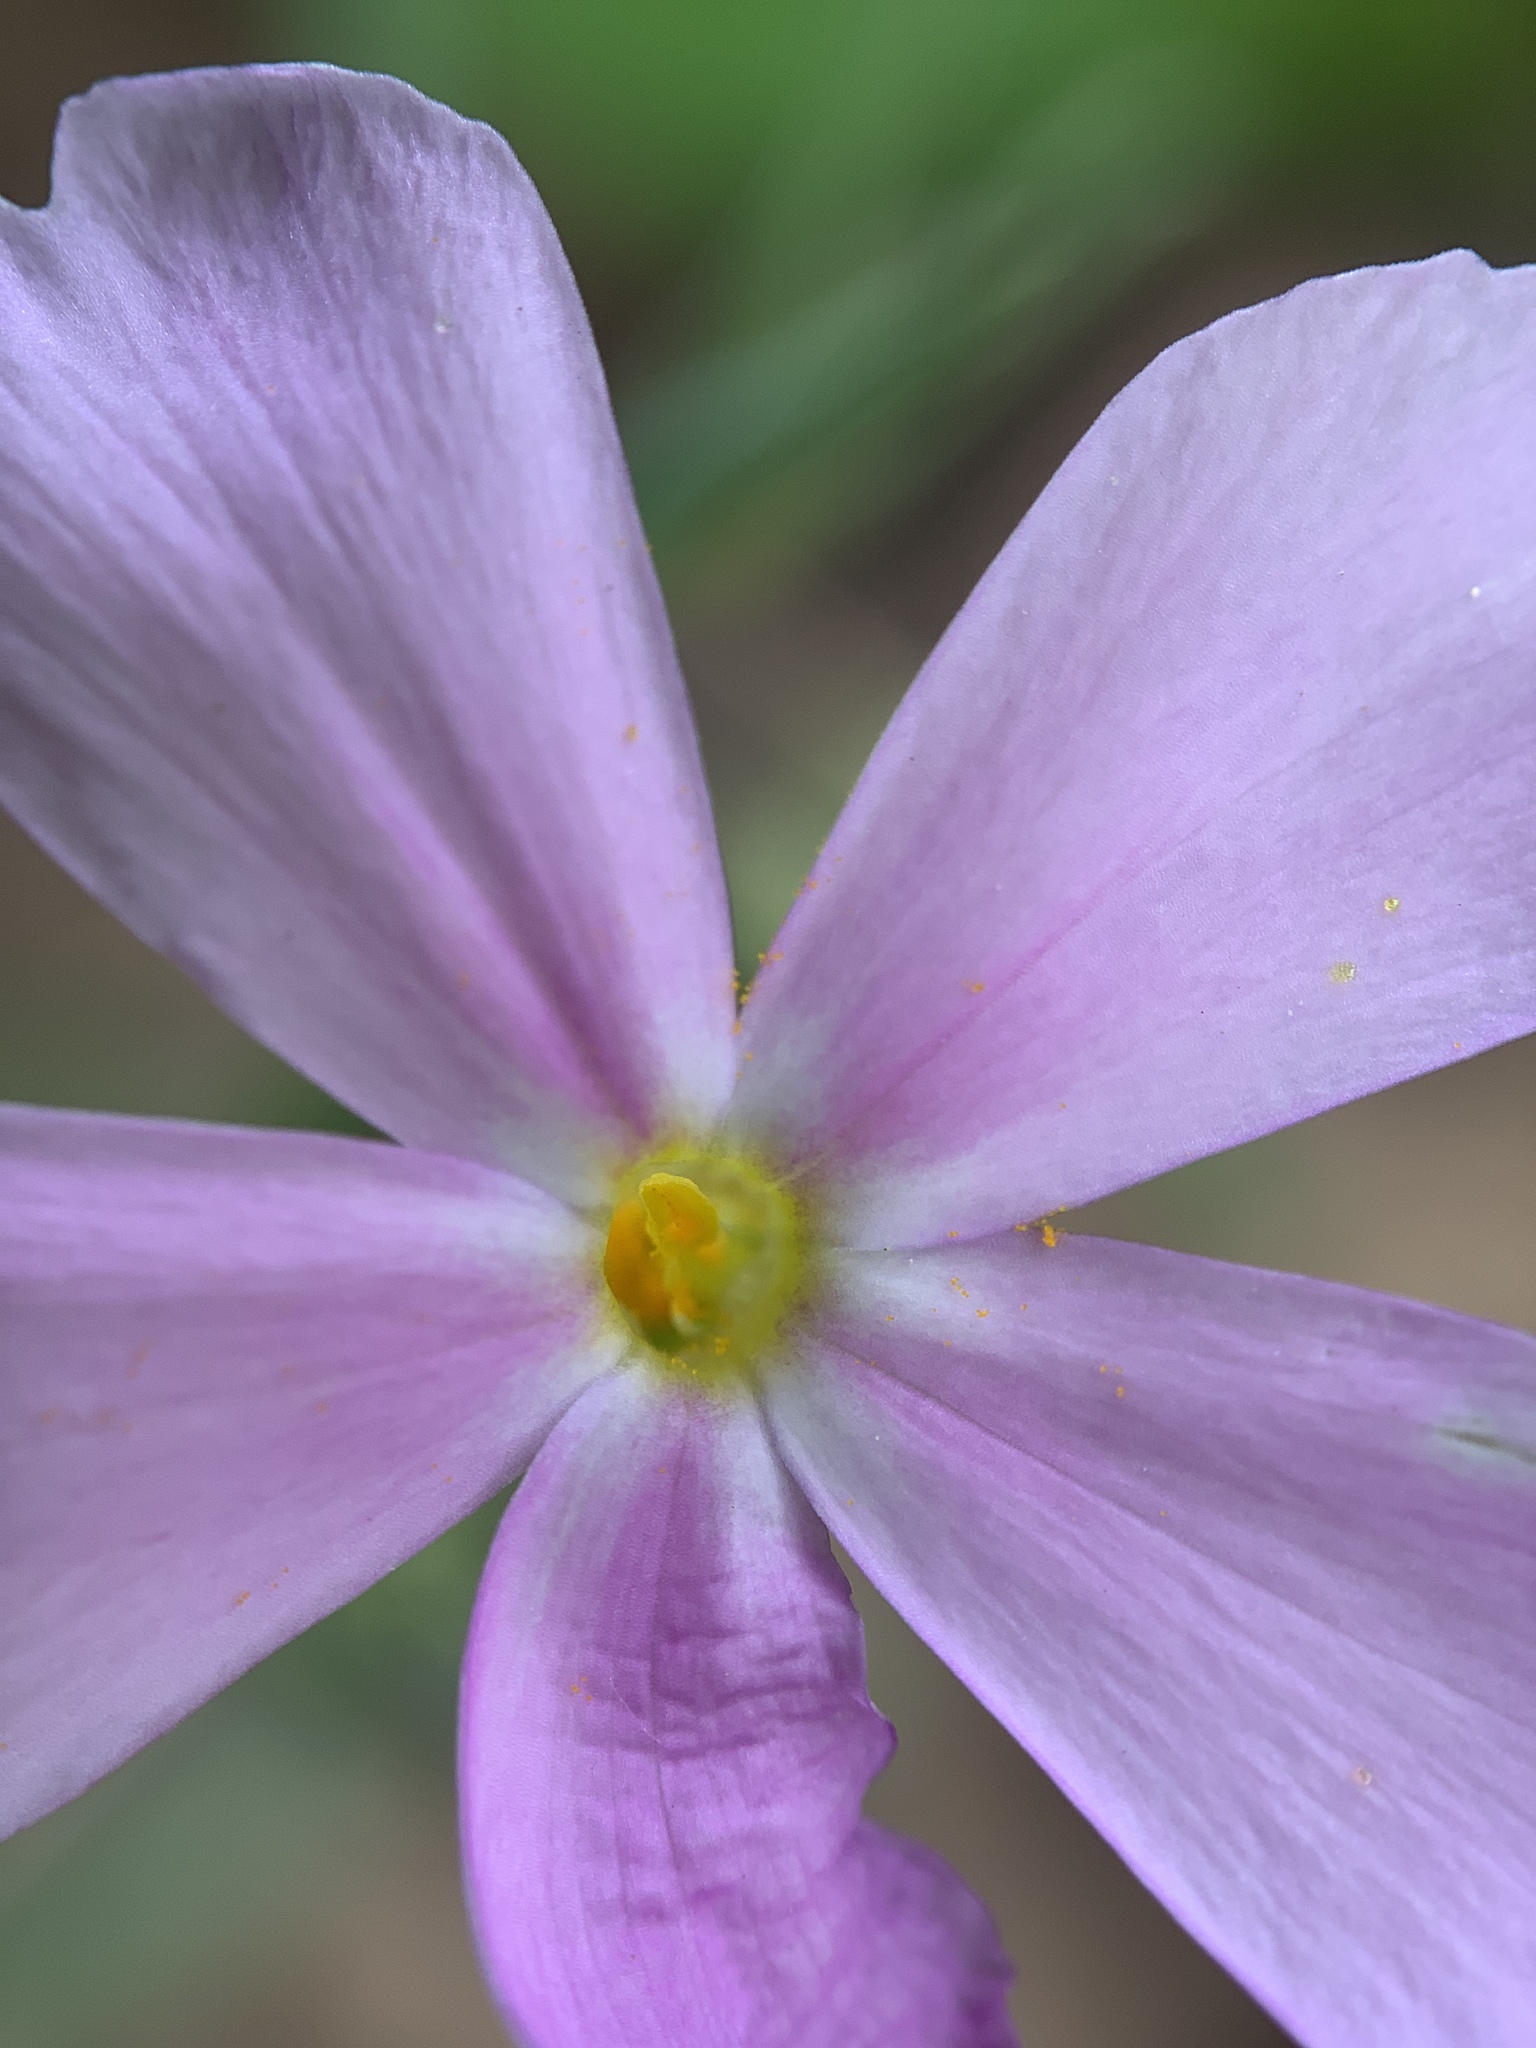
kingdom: Plantae
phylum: Tracheophyta
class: Magnoliopsida
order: Ericales
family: Polemoniaceae
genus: Phlox
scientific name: Phlox longifolia
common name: Longleaf phlox
